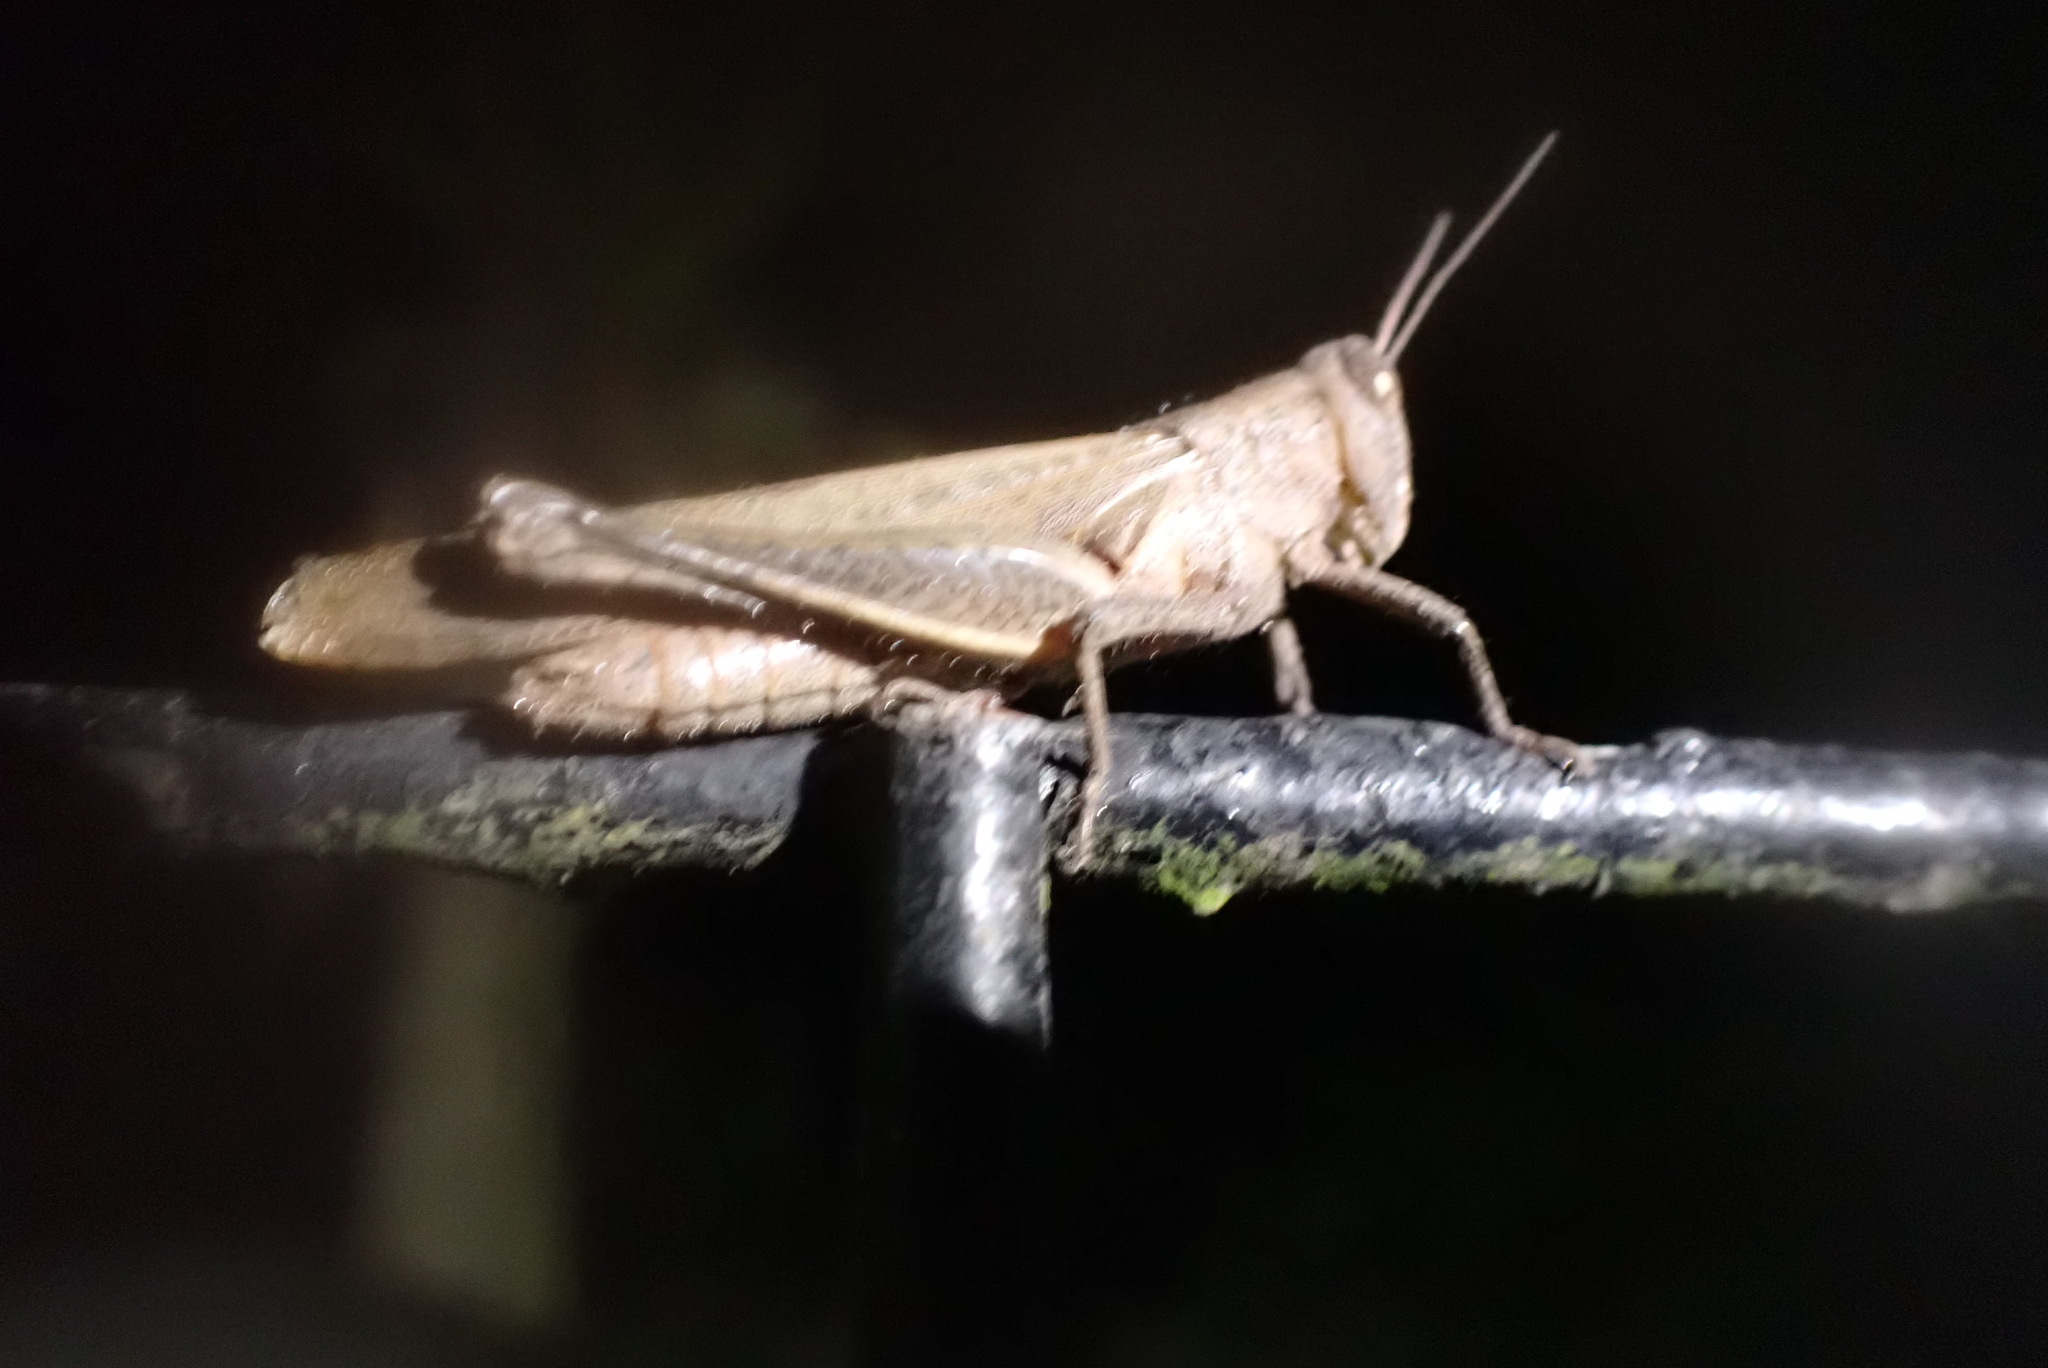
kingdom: Animalia
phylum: Arthropoda
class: Insecta
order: Orthoptera
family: Acrididae
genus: Abracris
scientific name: Abracris flavolineata
